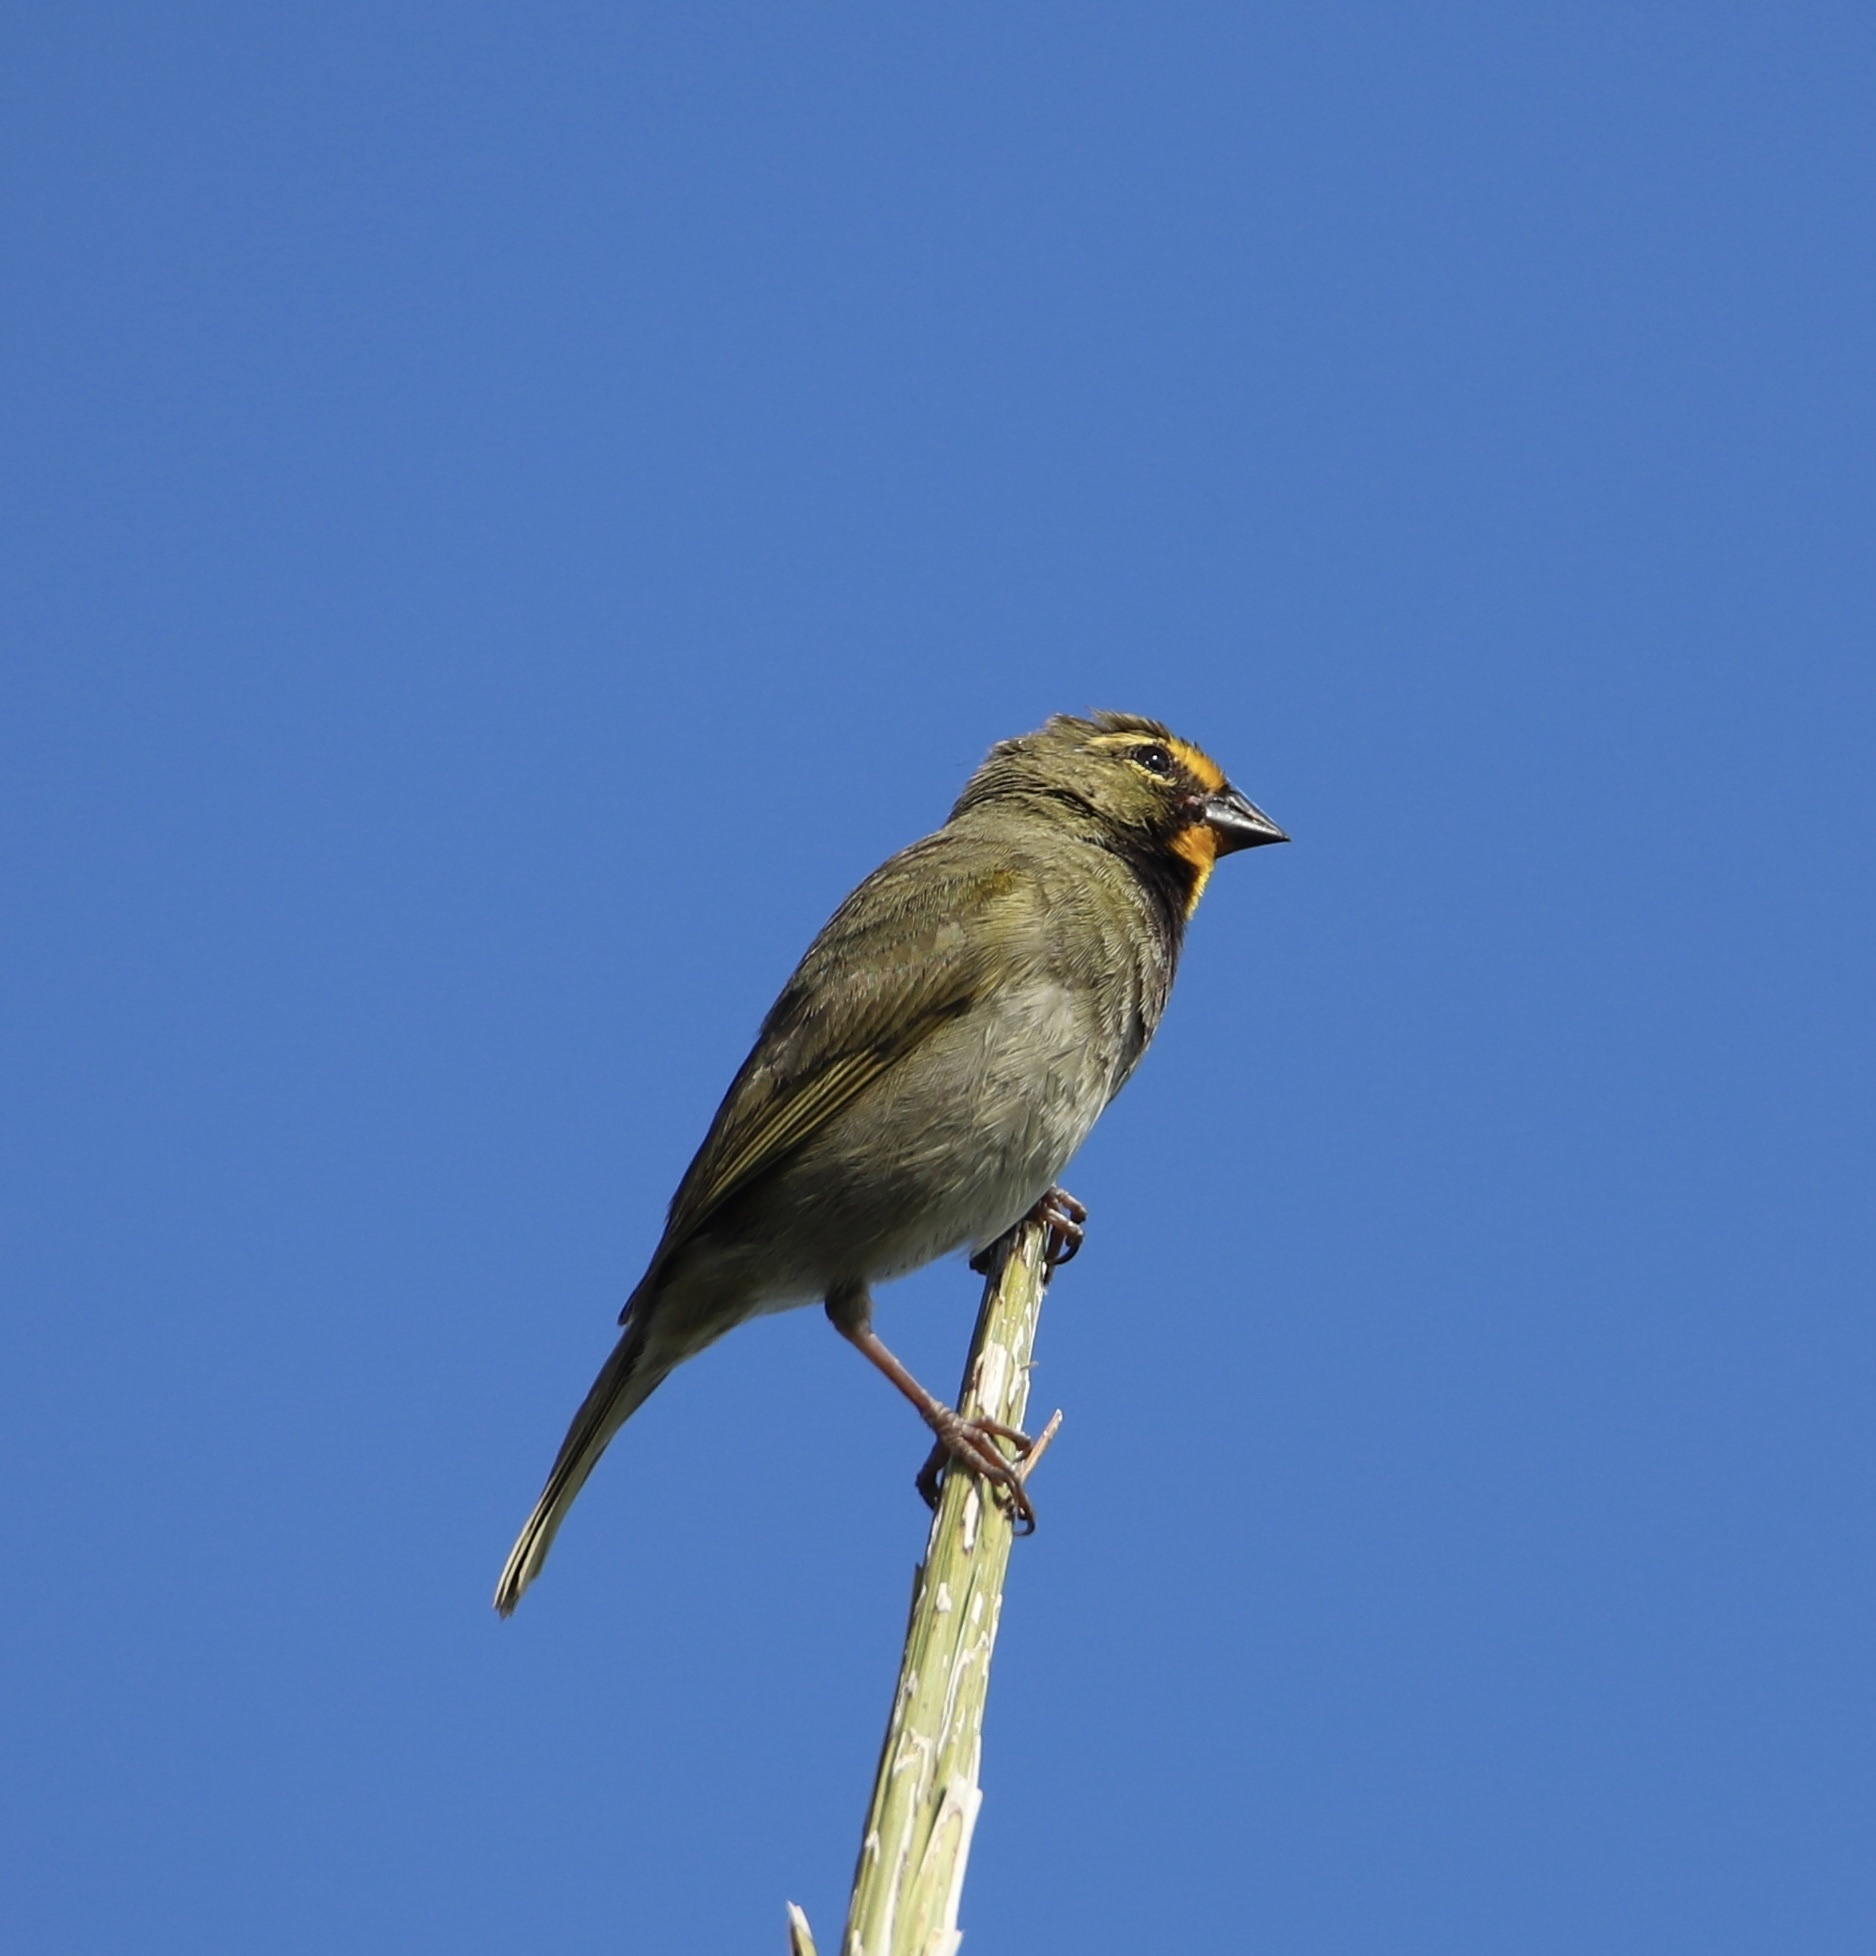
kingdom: Animalia
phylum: Chordata
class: Aves
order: Passeriformes
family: Thraupidae
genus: Tiaris
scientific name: Tiaris olivaceus
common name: Yellow-faced grassquit
